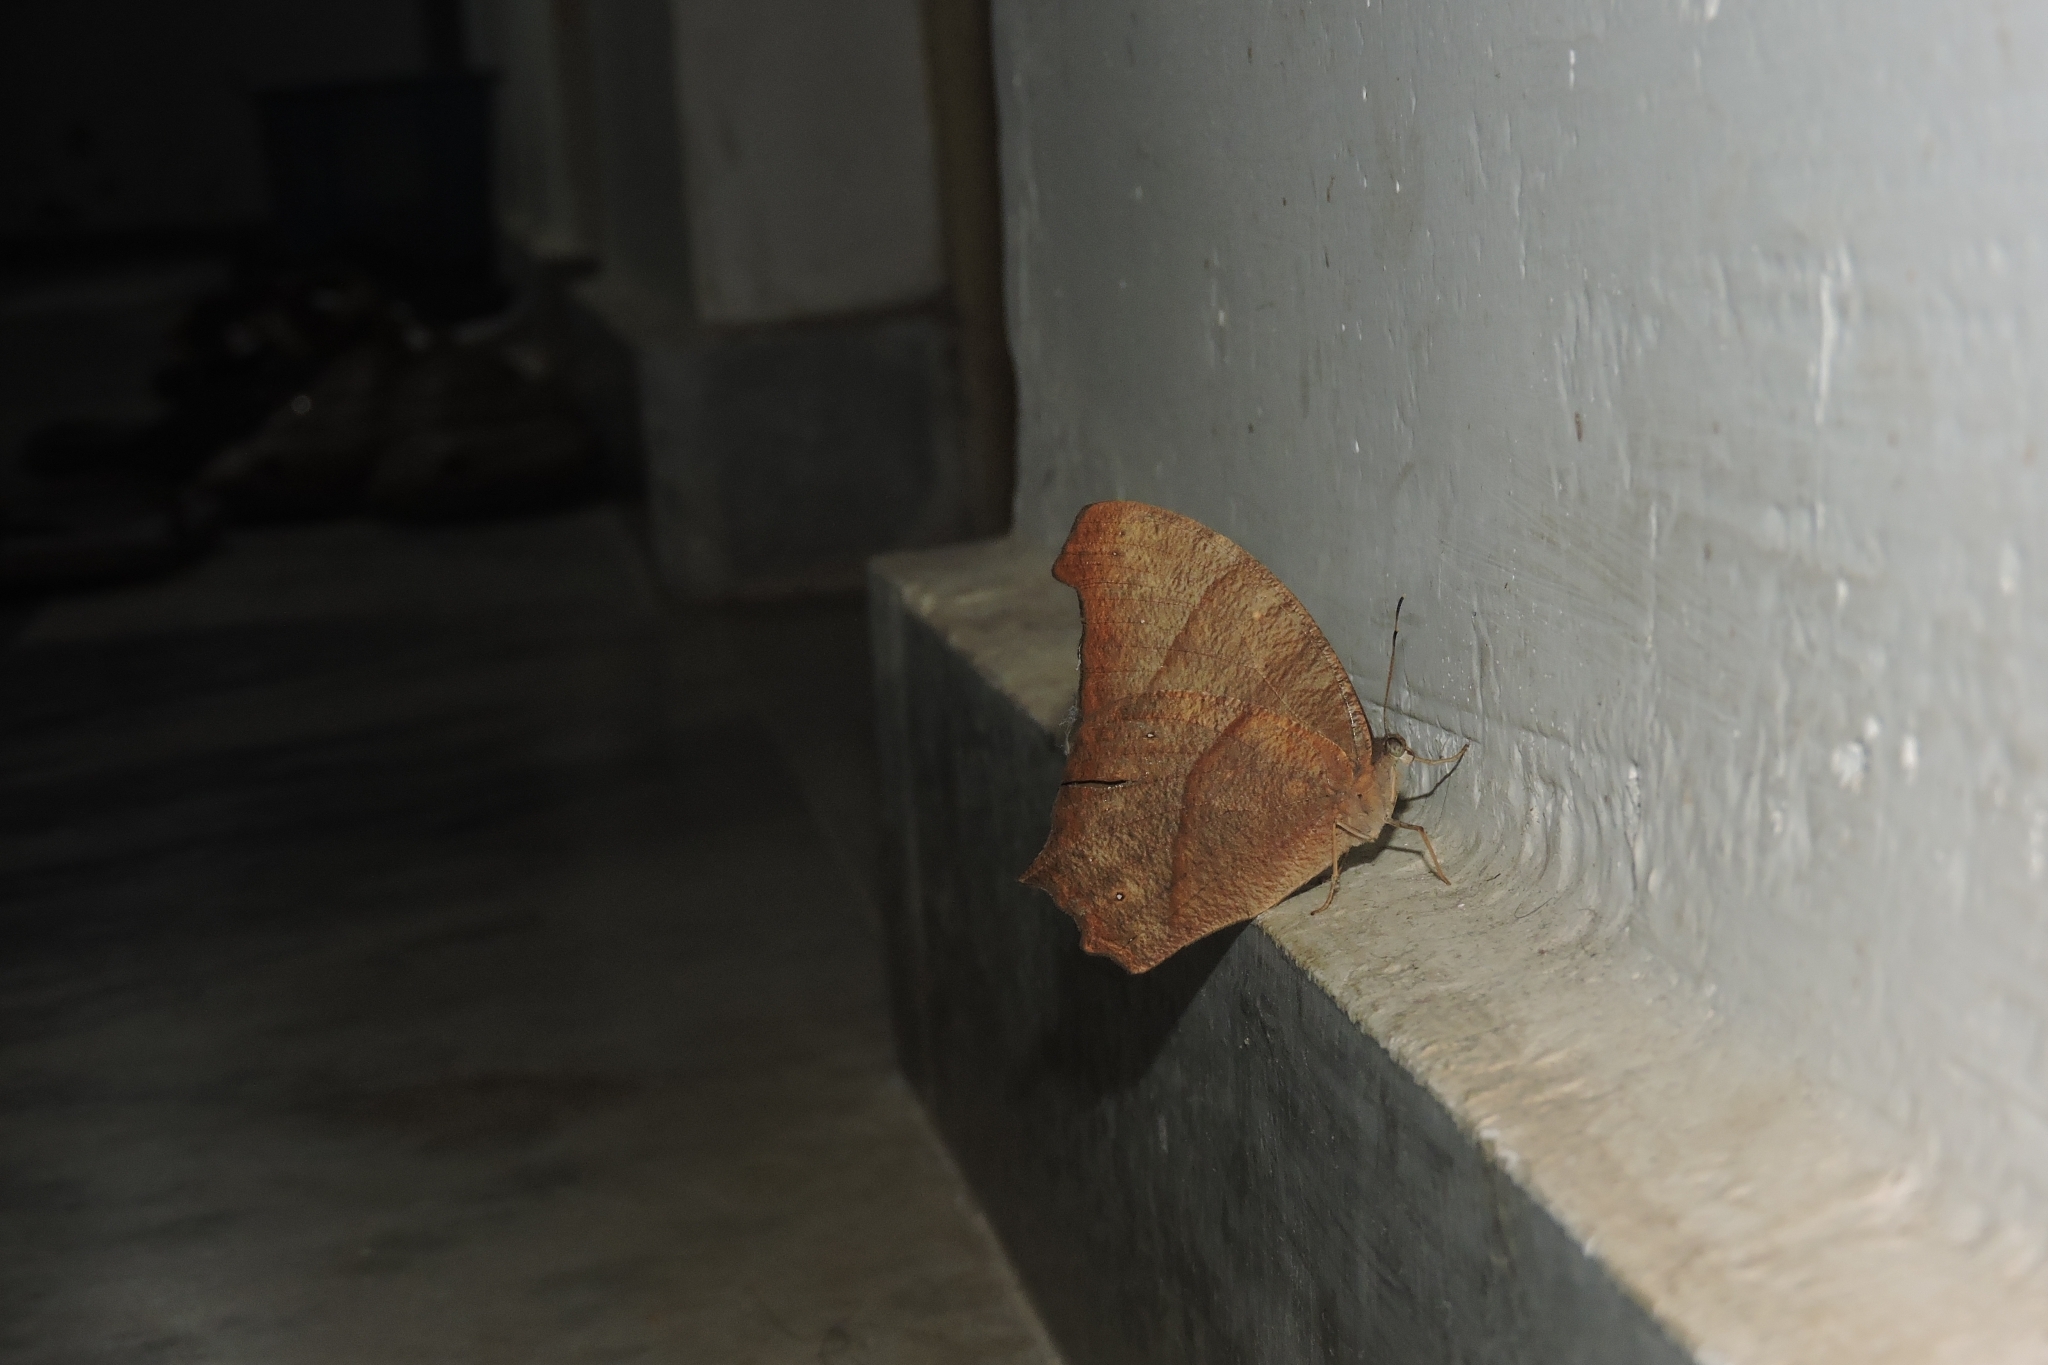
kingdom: Animalia
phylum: Arthropoda
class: Insecta
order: Lepidoptera
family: Nymphalidae
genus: Melanitis
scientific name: Melanitis phedima
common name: Dark evening brown
